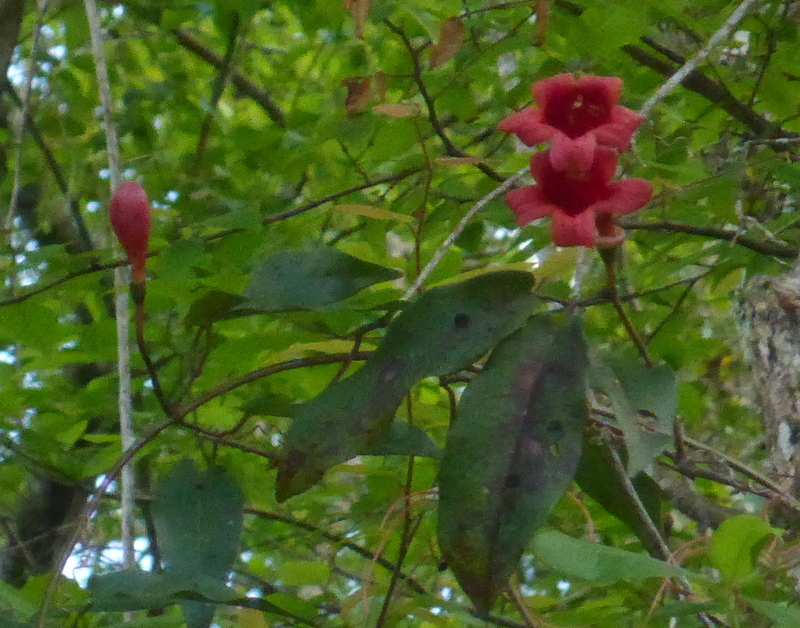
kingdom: Plantae
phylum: Tracheophyta
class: Magnoliopsida
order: Lamiales
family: Bignoniaceae
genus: Bignonia
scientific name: Bignonia capreolata
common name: Crossvine
